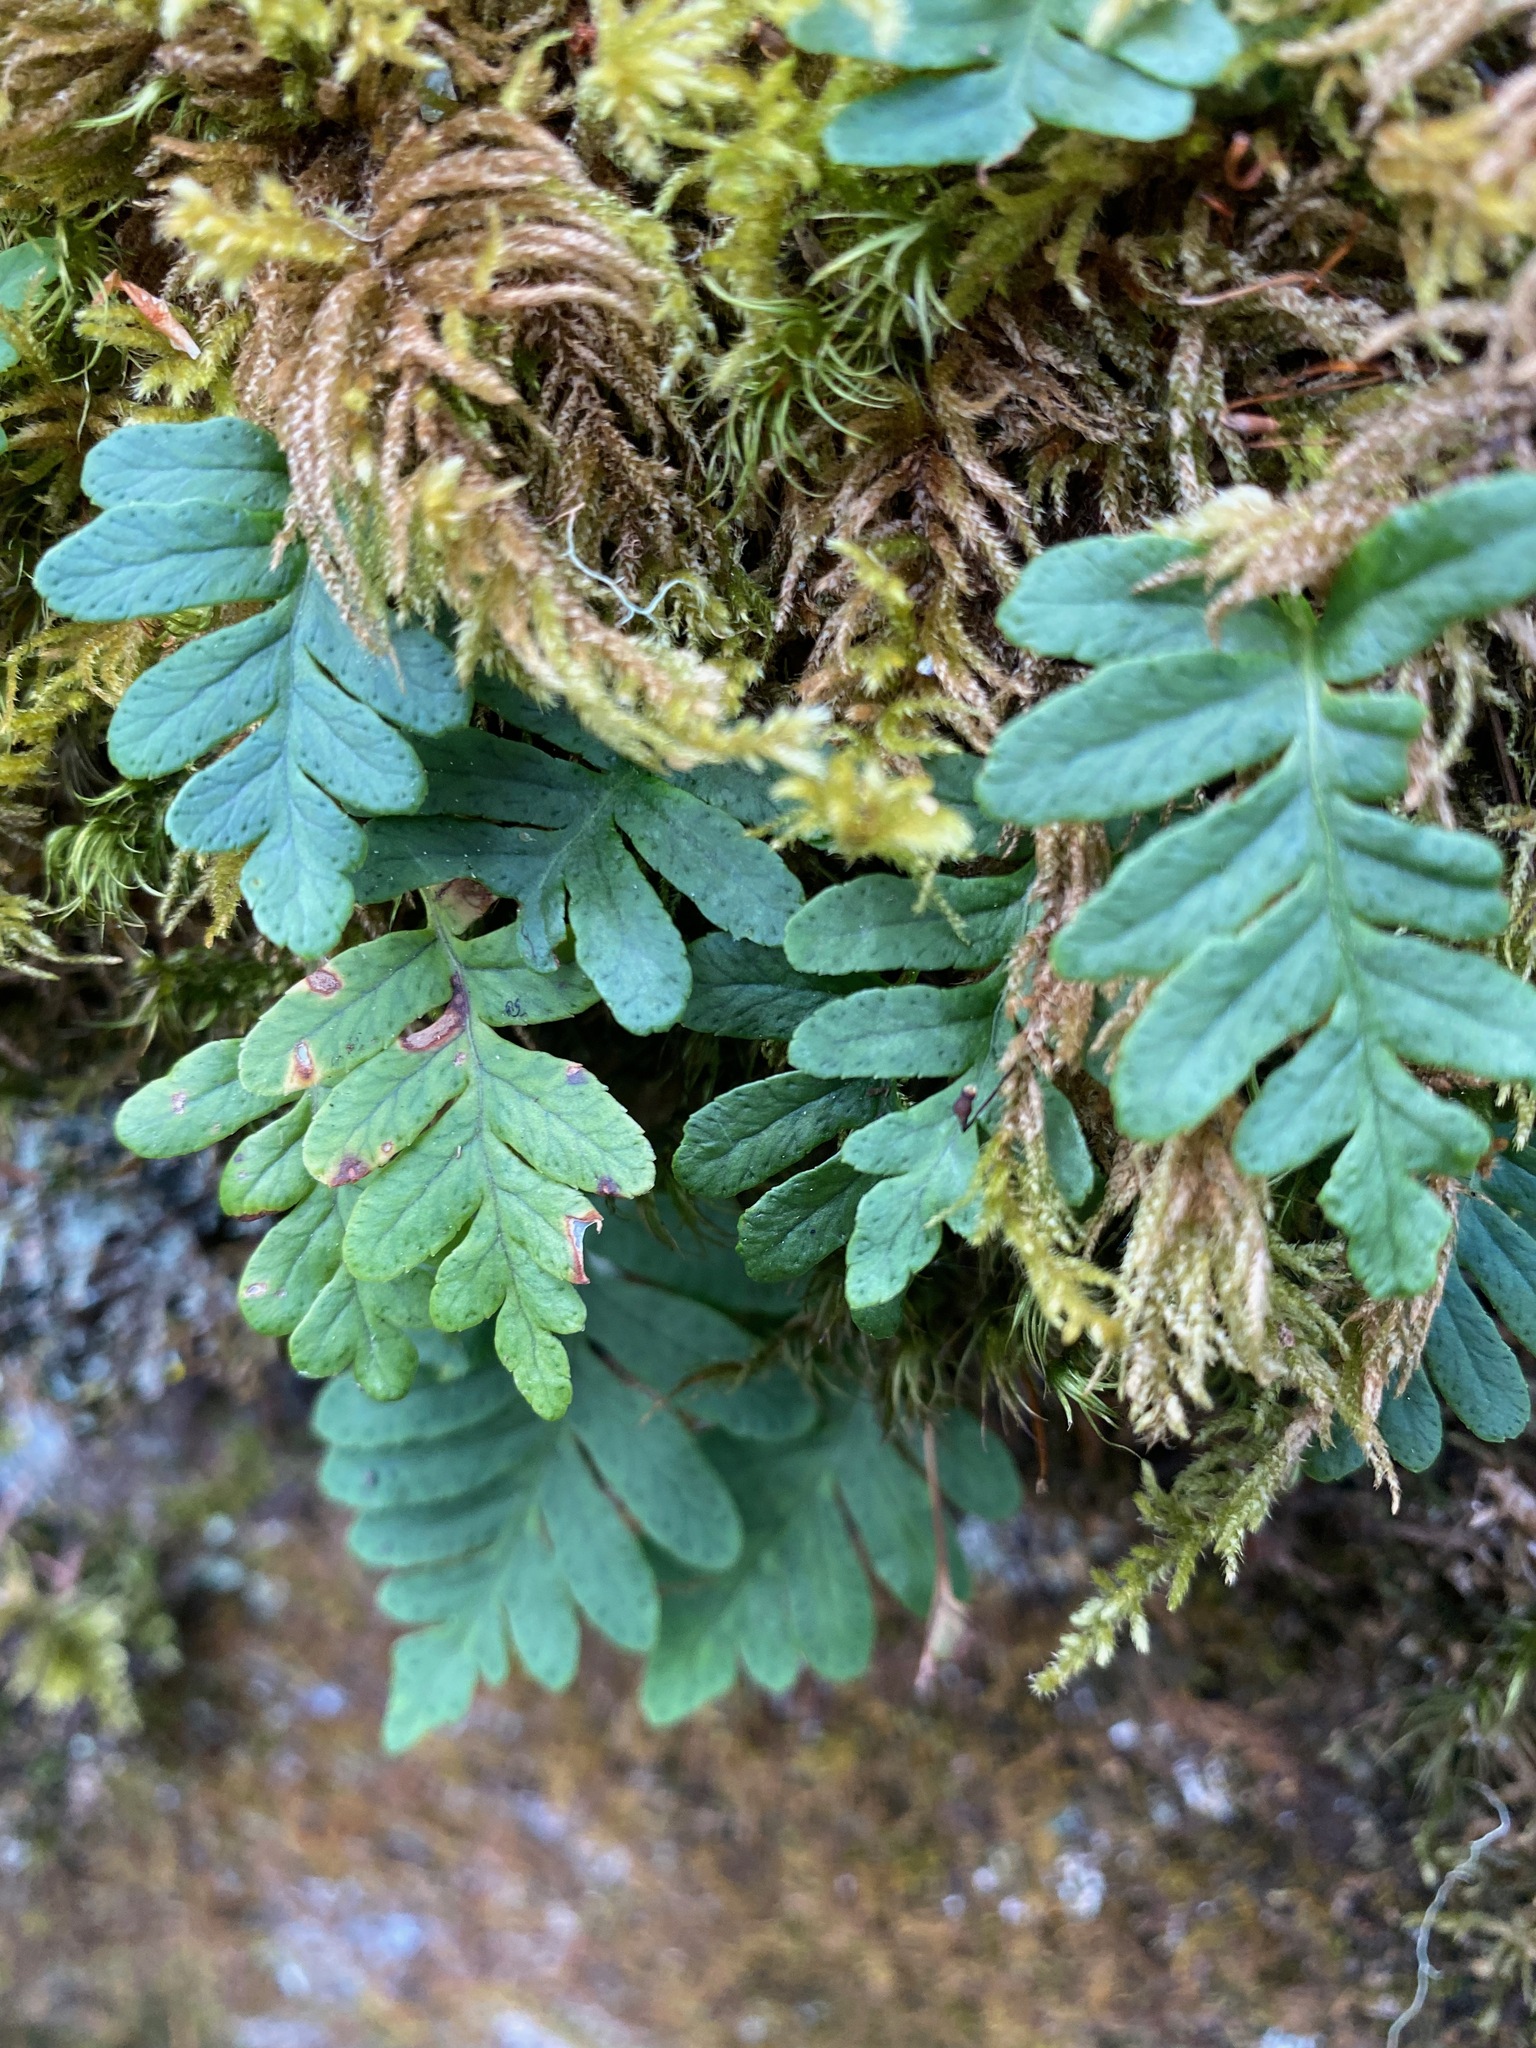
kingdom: Plantae
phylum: Tracheophyta
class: Polypodiopsida
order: Polypodiales
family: Polypodiaceae
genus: Polypodium
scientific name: Polypodium glycyrrhiza
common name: Licorice fern
